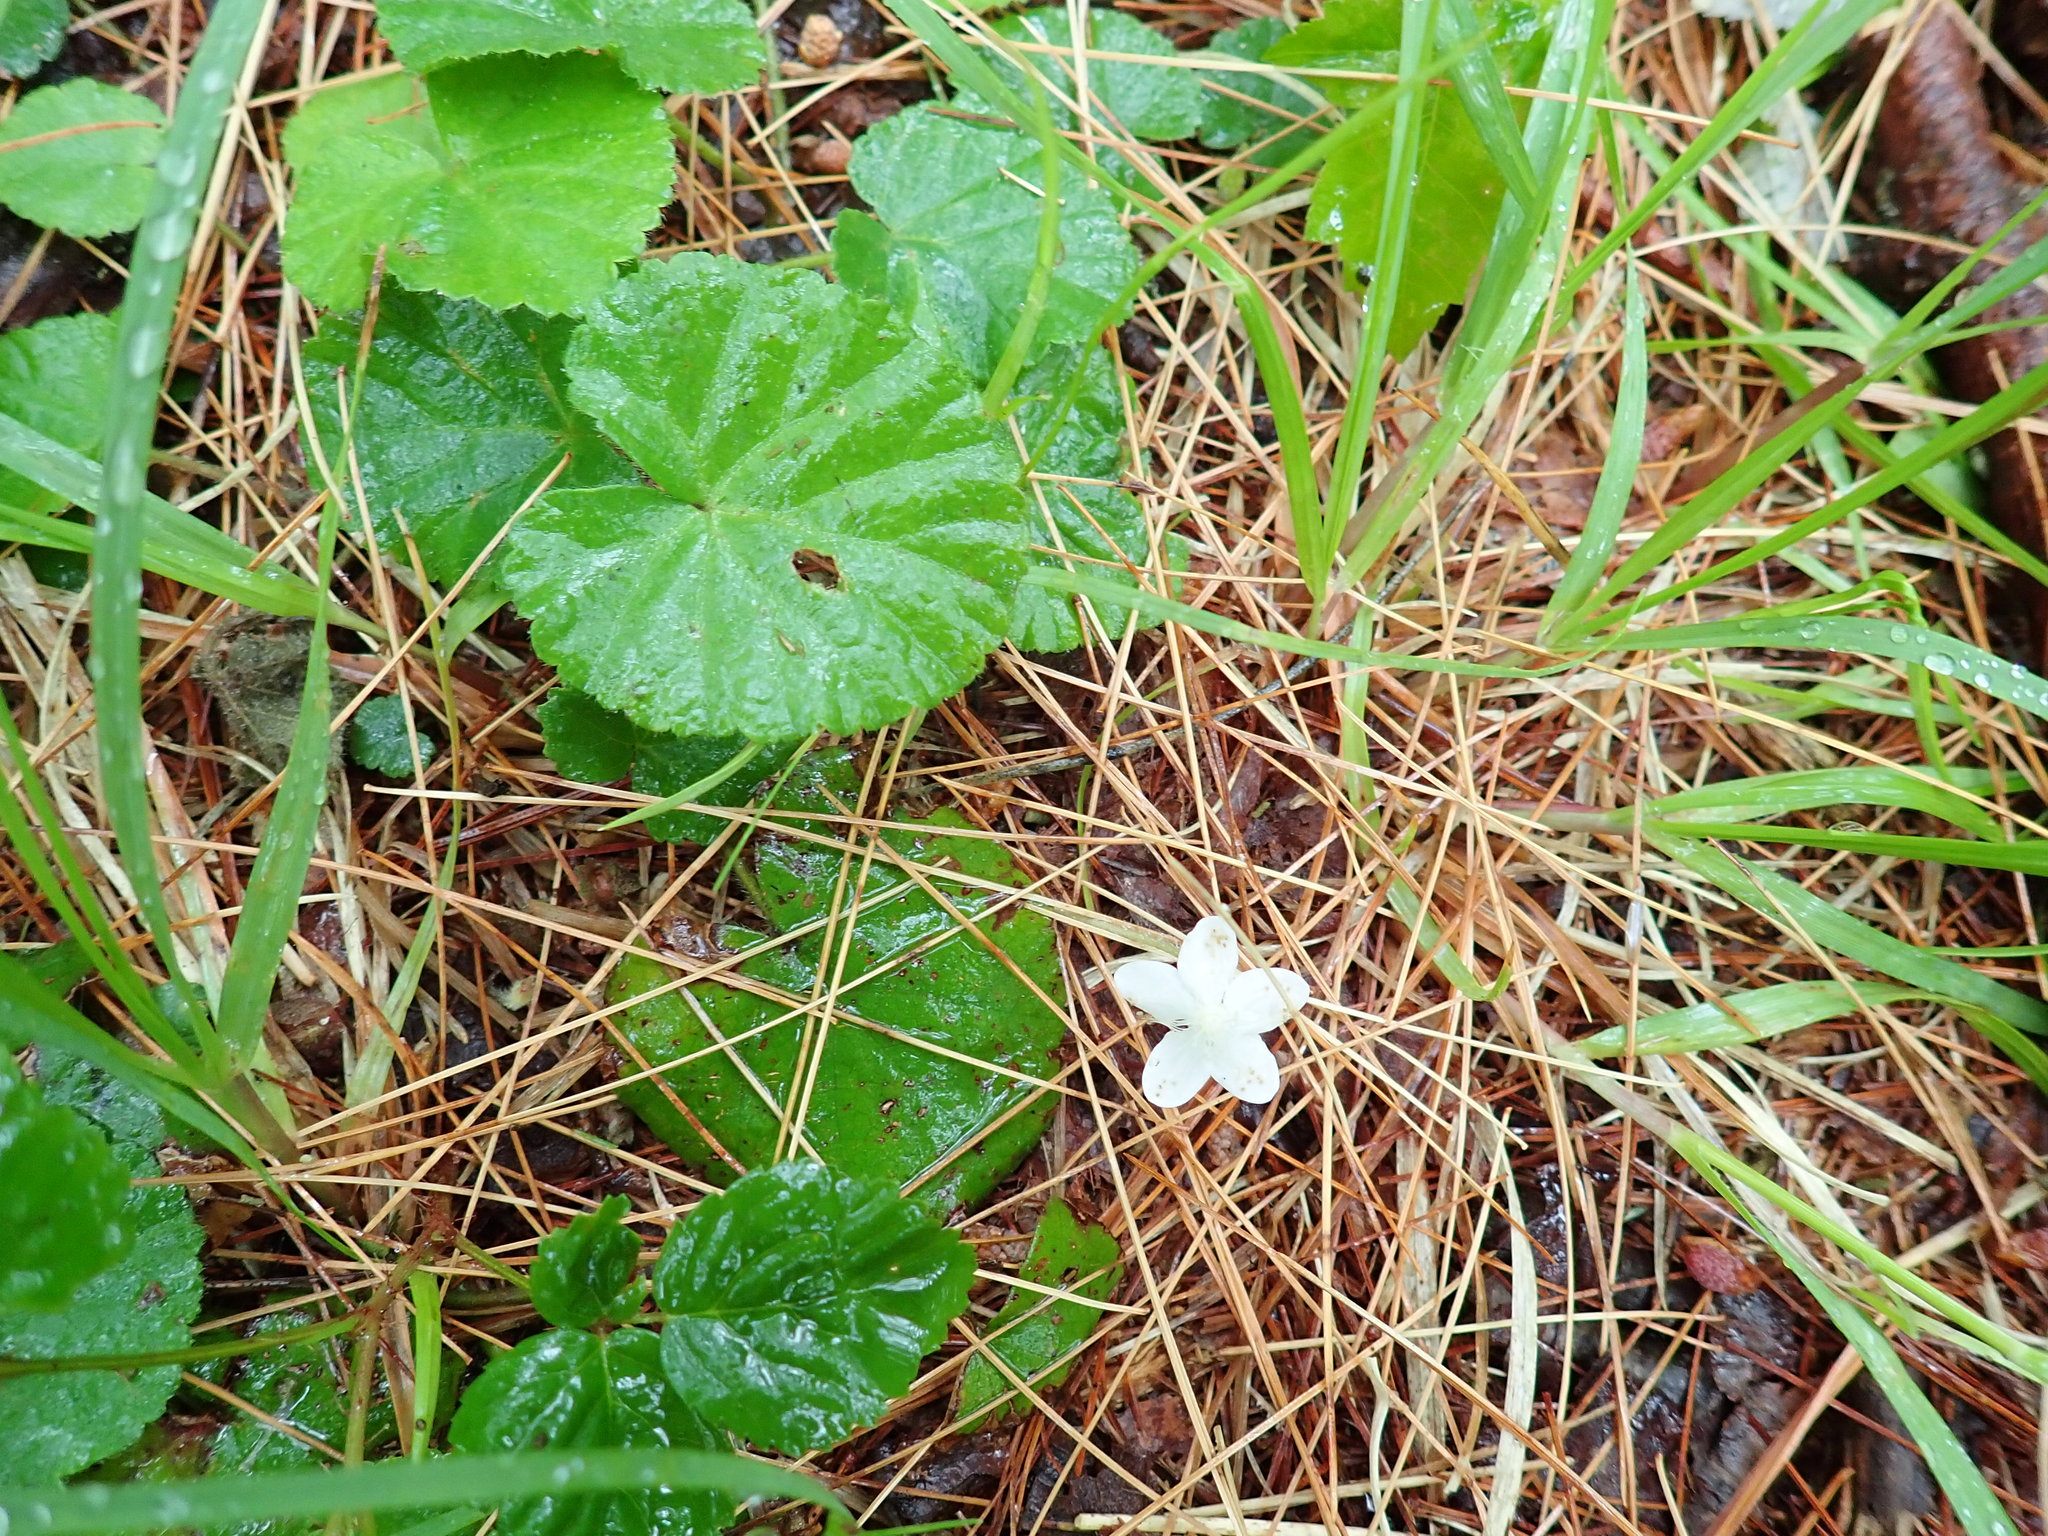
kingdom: Plantae
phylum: Tracheophyta
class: Magnoliopsida
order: Rosales
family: Rosaceae
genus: Dalibarda
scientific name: Dalibarda repens
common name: Dewdrop
